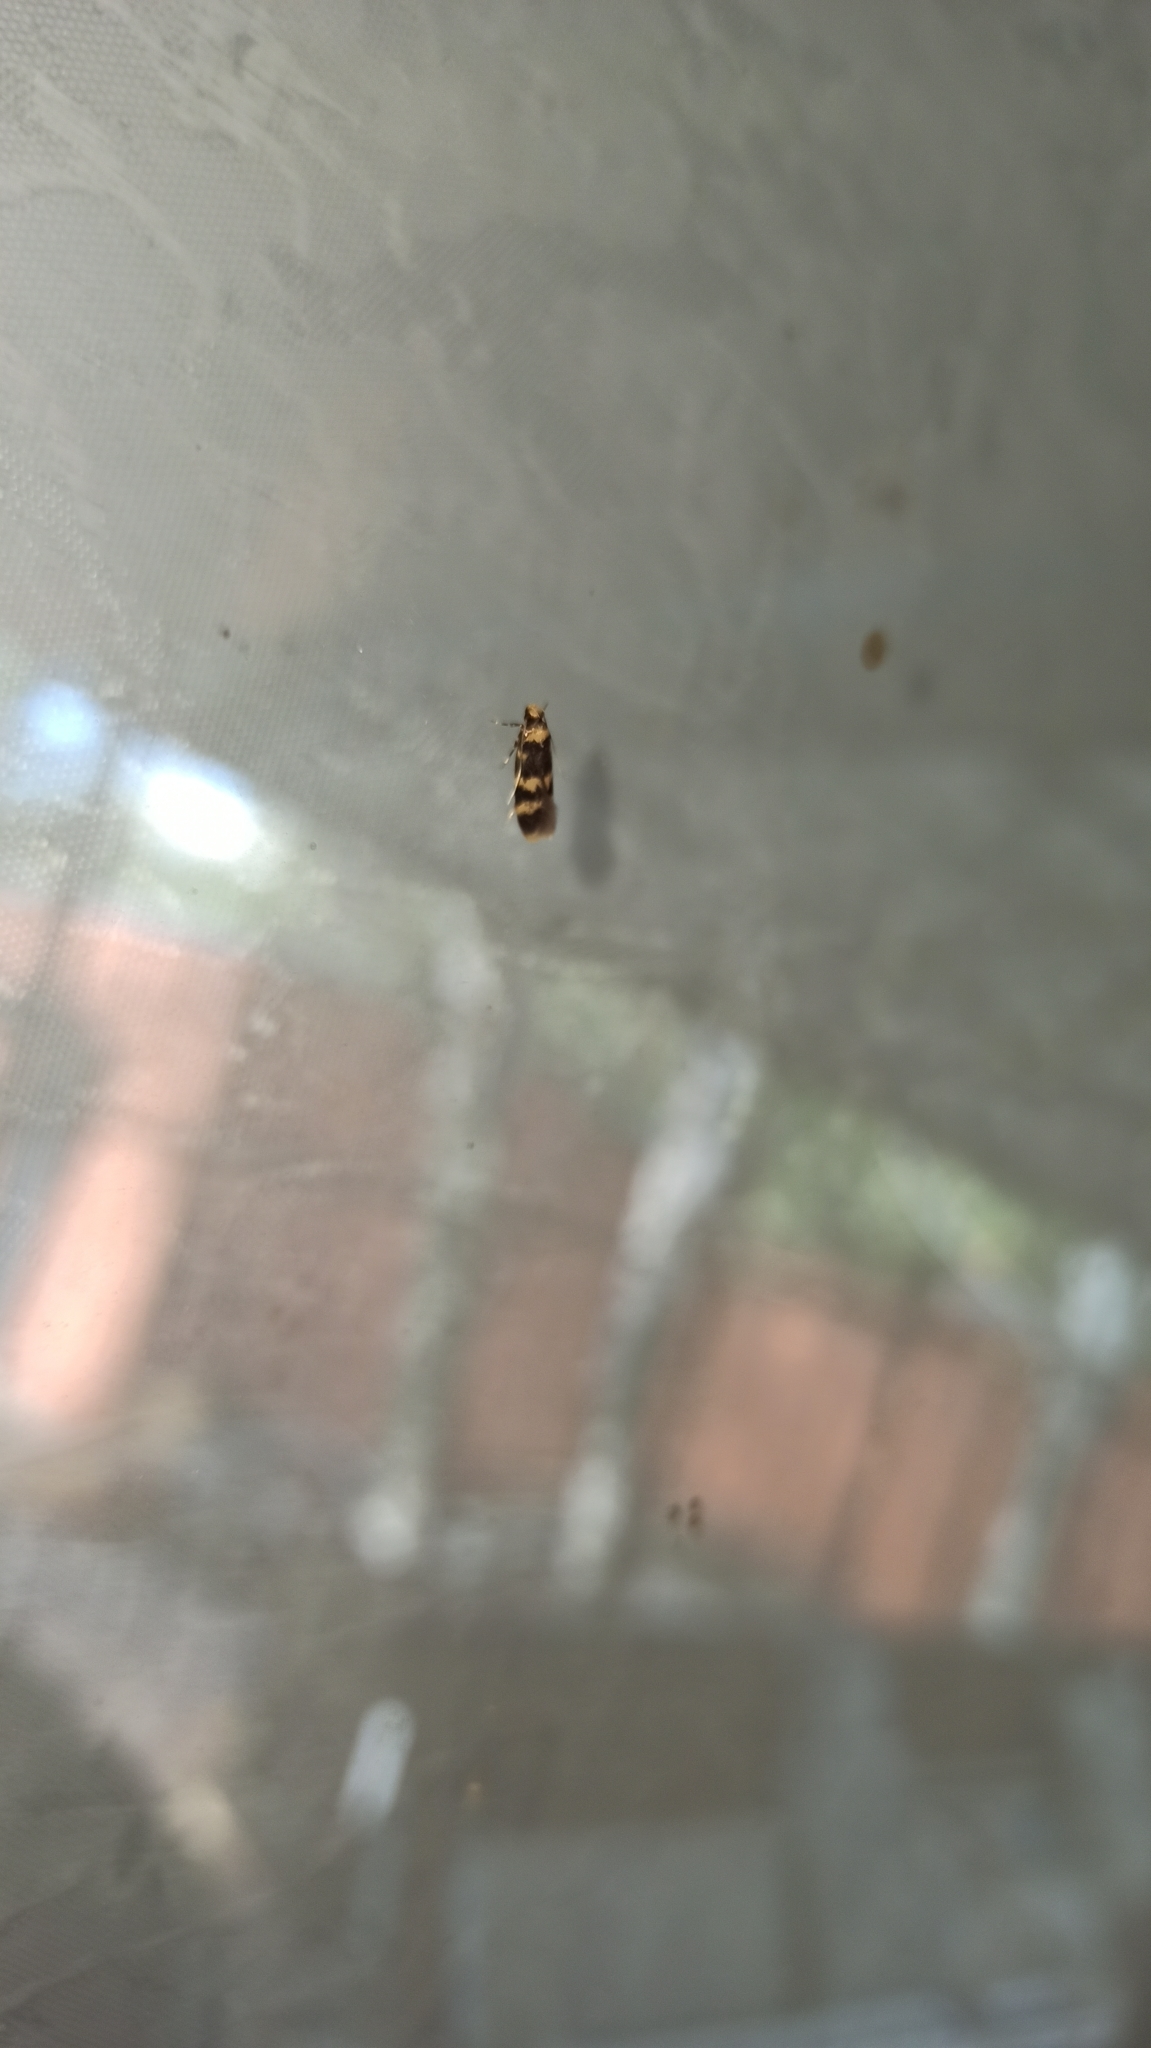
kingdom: Animalia
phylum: Arthropoda
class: Insecta
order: Lepidoptera
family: Autostichidae
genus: Oegoconia
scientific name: Oegoconia caradjai
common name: Straw obscure
